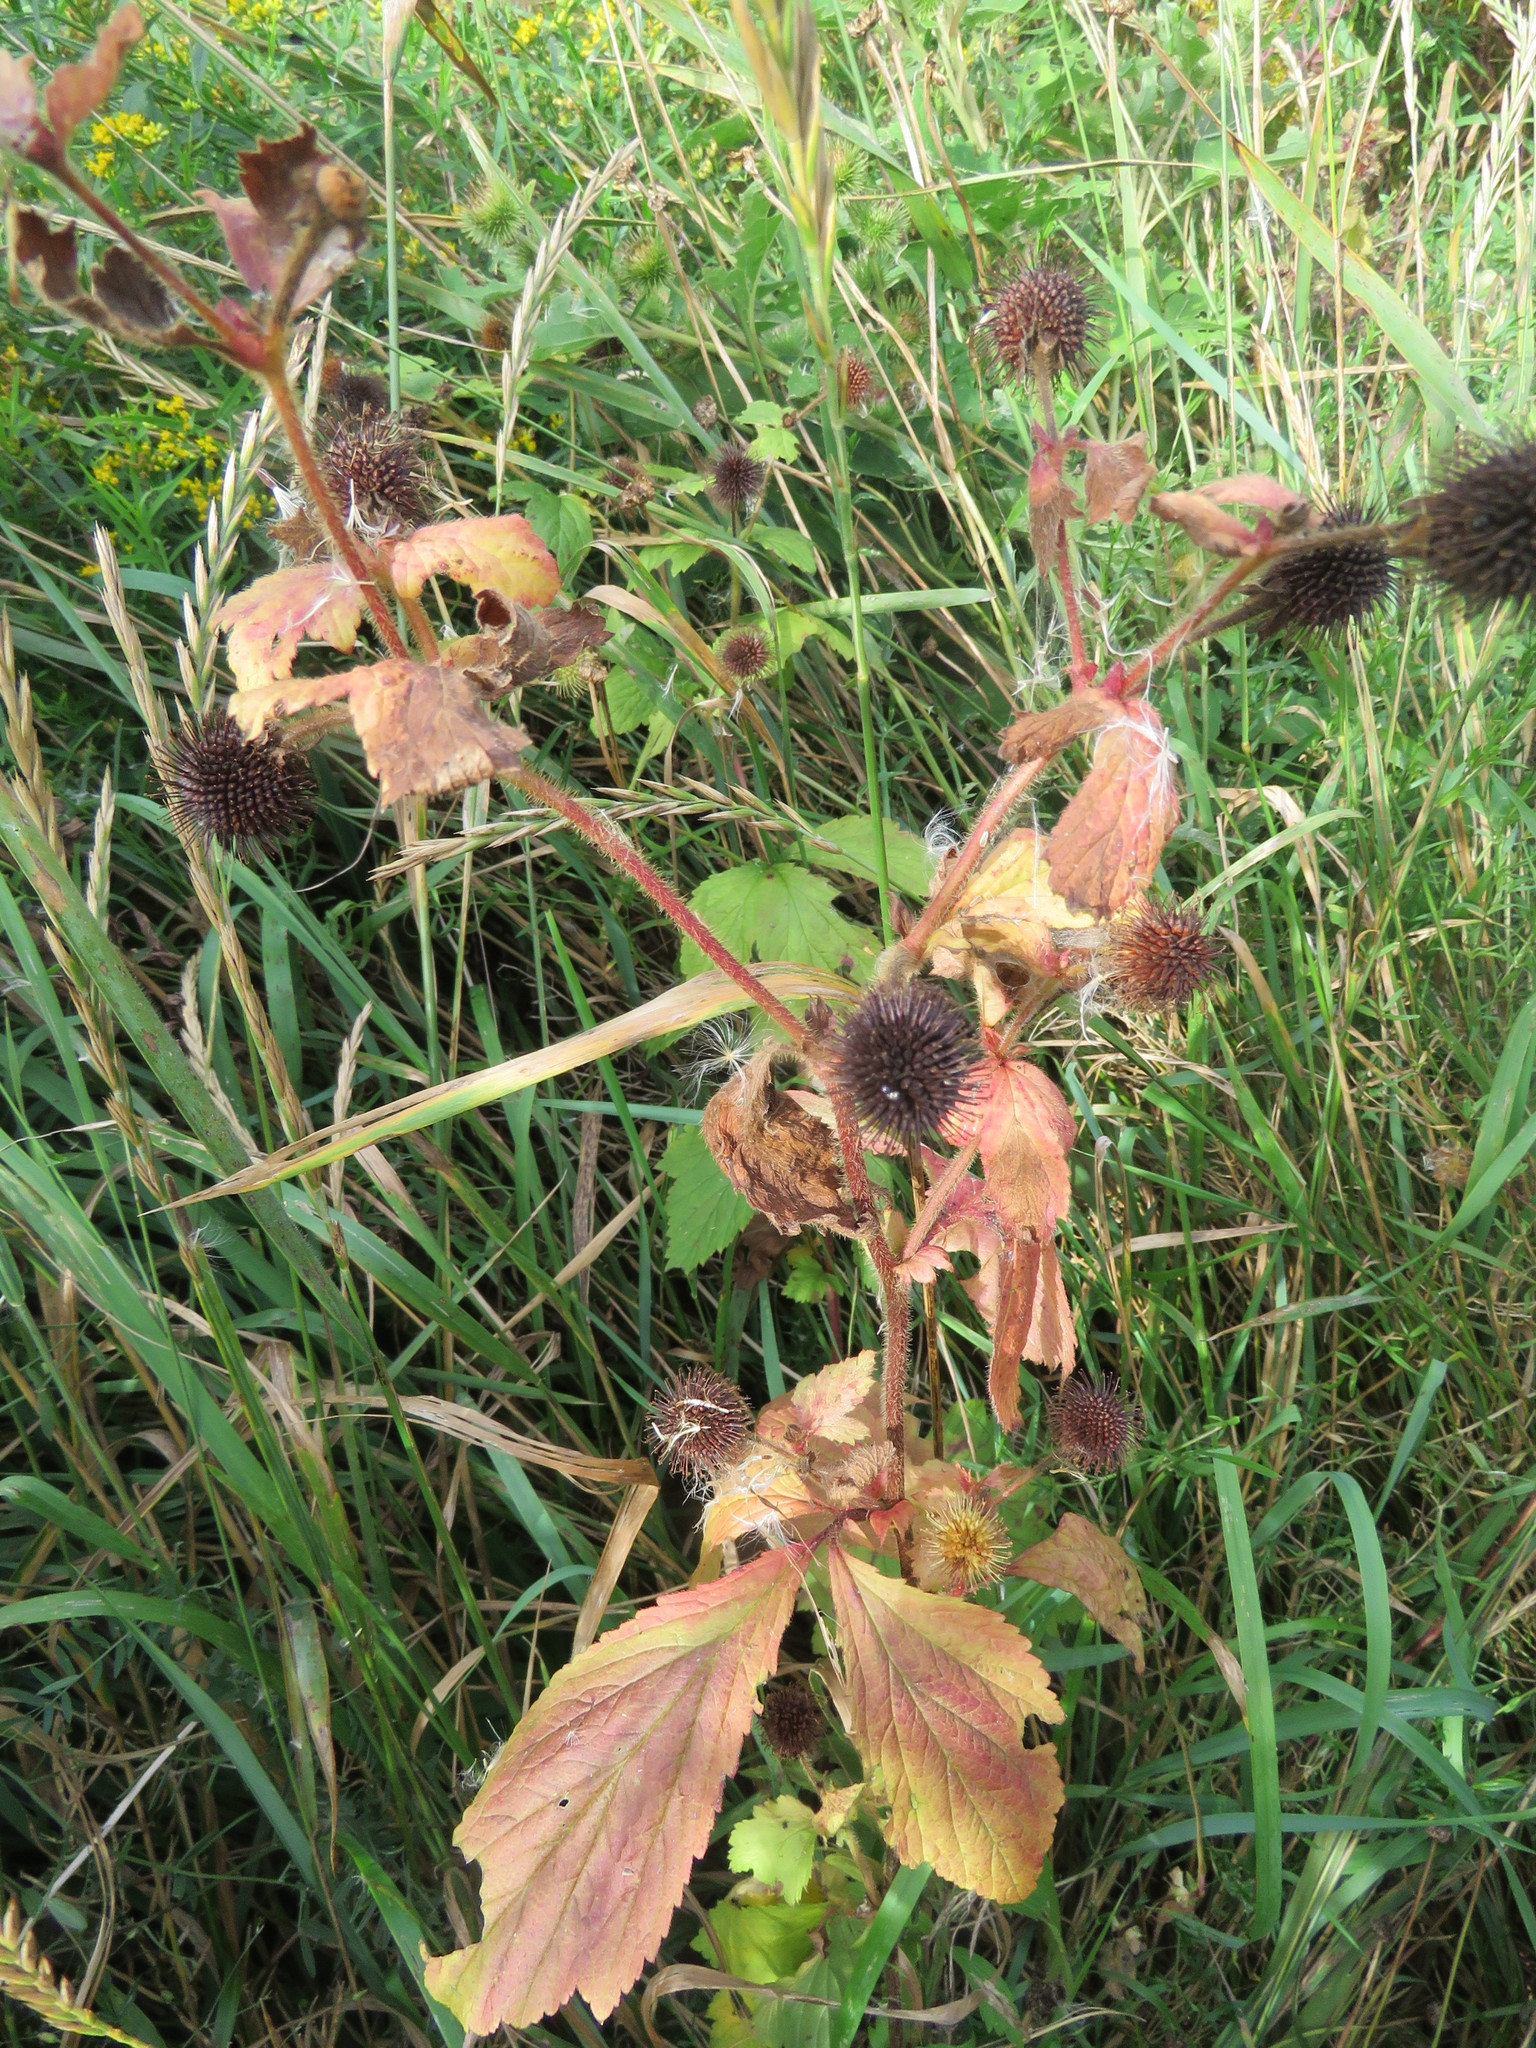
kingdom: Plantae
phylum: Tracheophyta
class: Magnoliopsida
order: Rosales
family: Rosaceae
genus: Geum
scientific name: Geum laciniatum
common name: Rough avens
